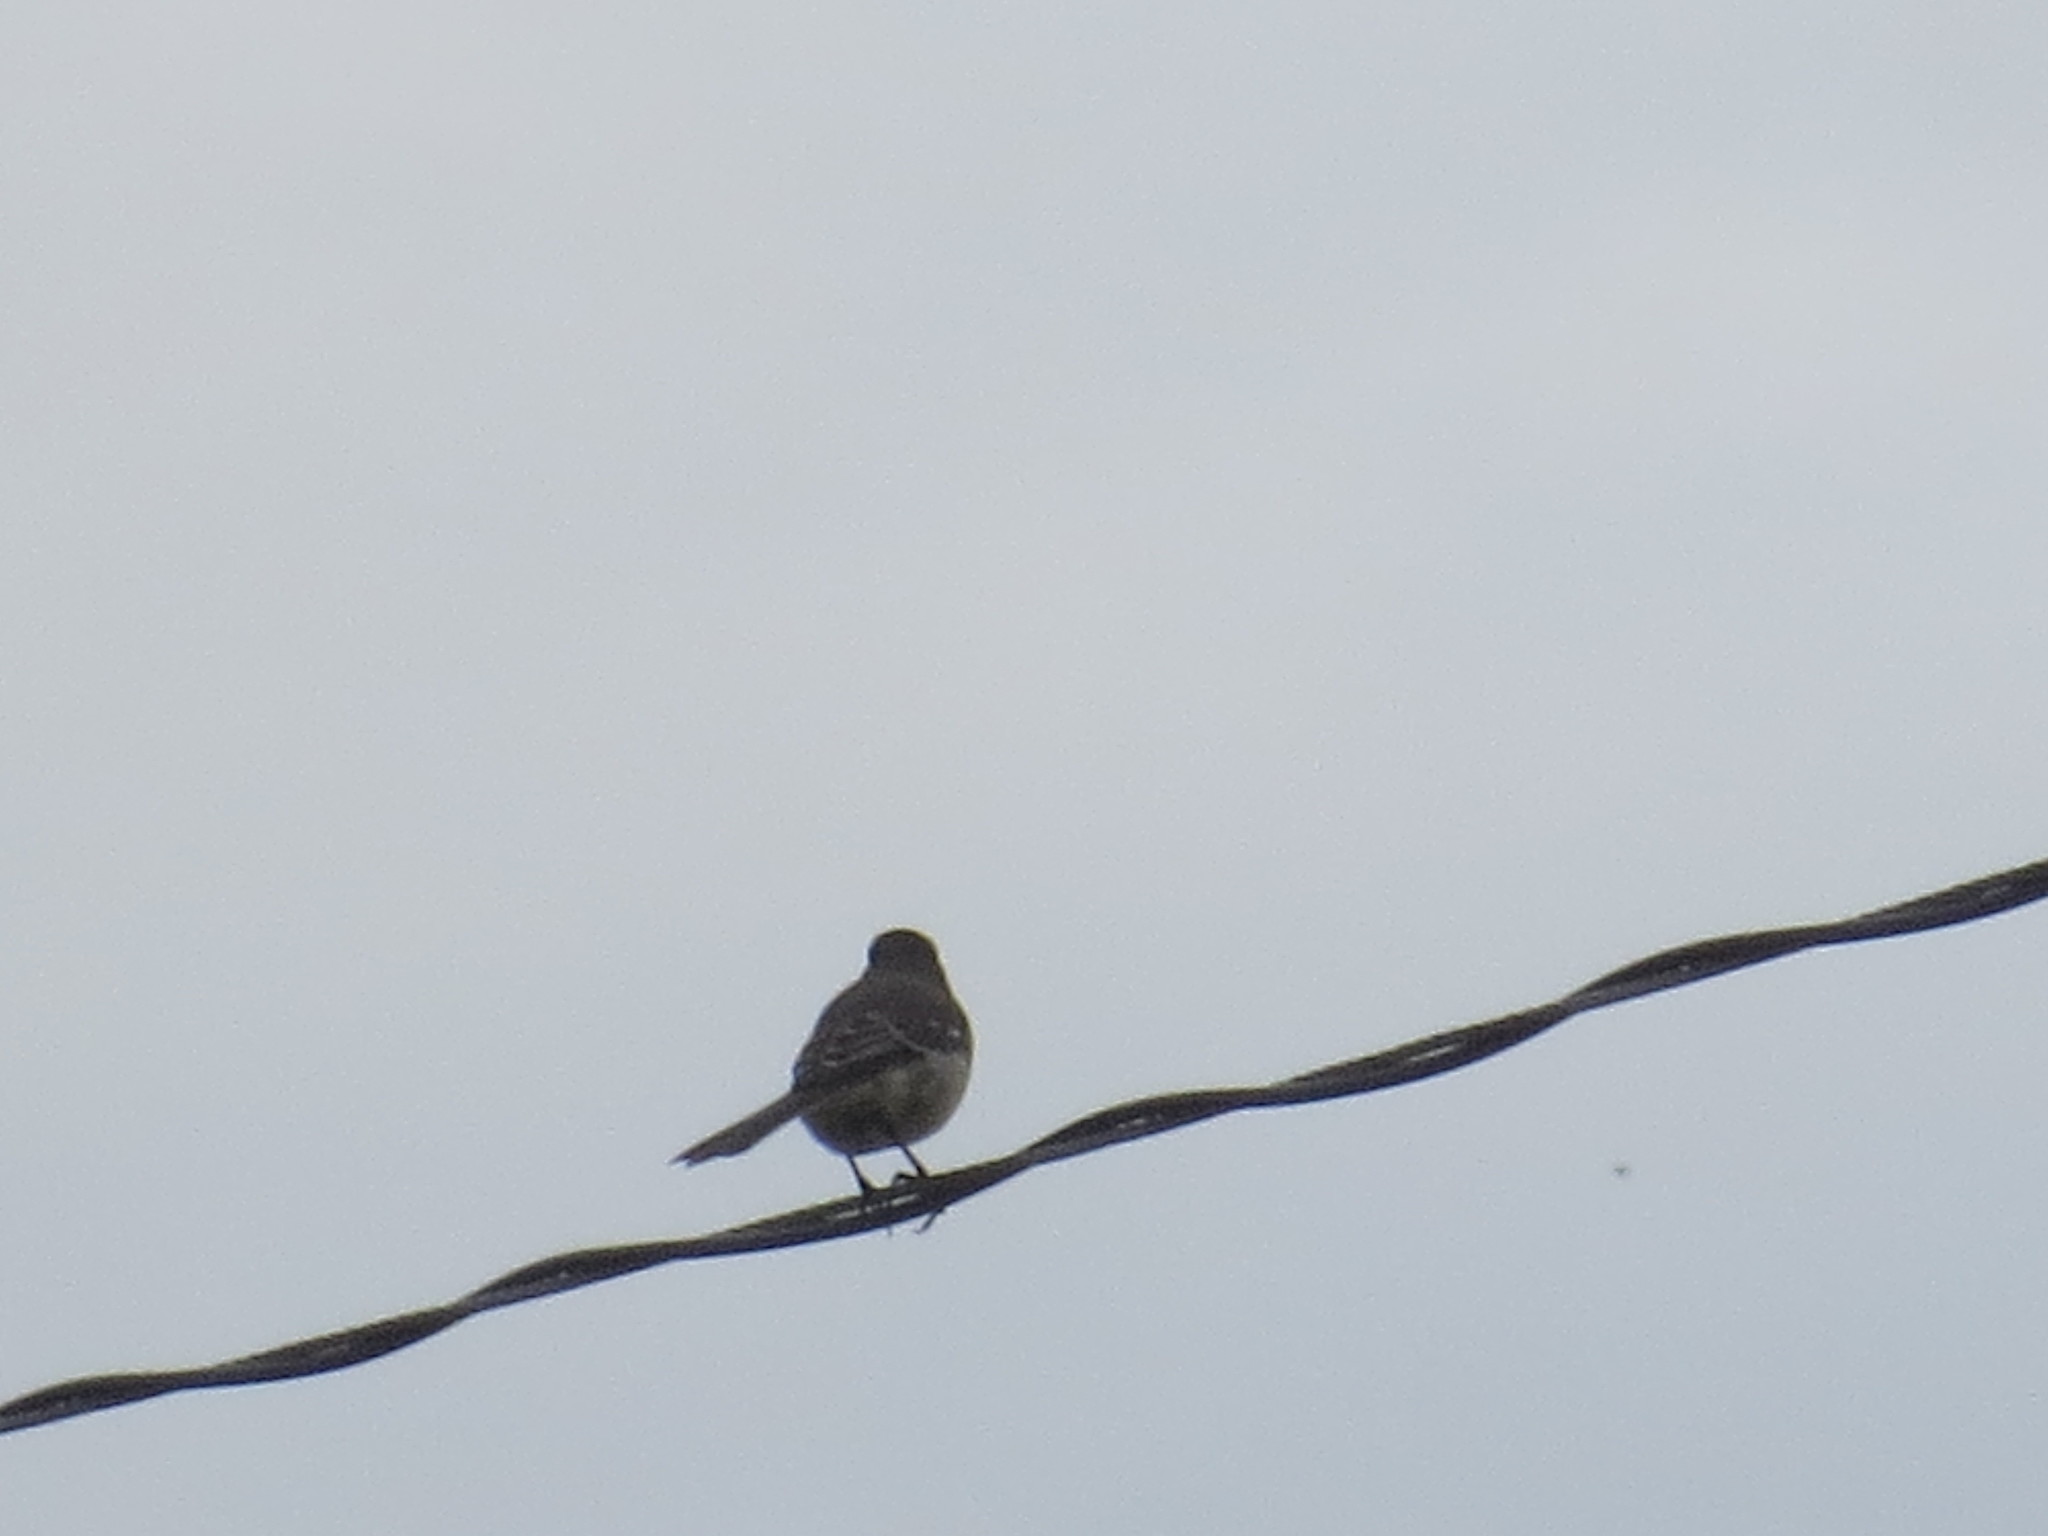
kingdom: Animalia
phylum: Chordata
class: Aves
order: Passeriformes
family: Mimidae
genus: Mimus
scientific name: Mimus polyglottos
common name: Northern mockingbird
